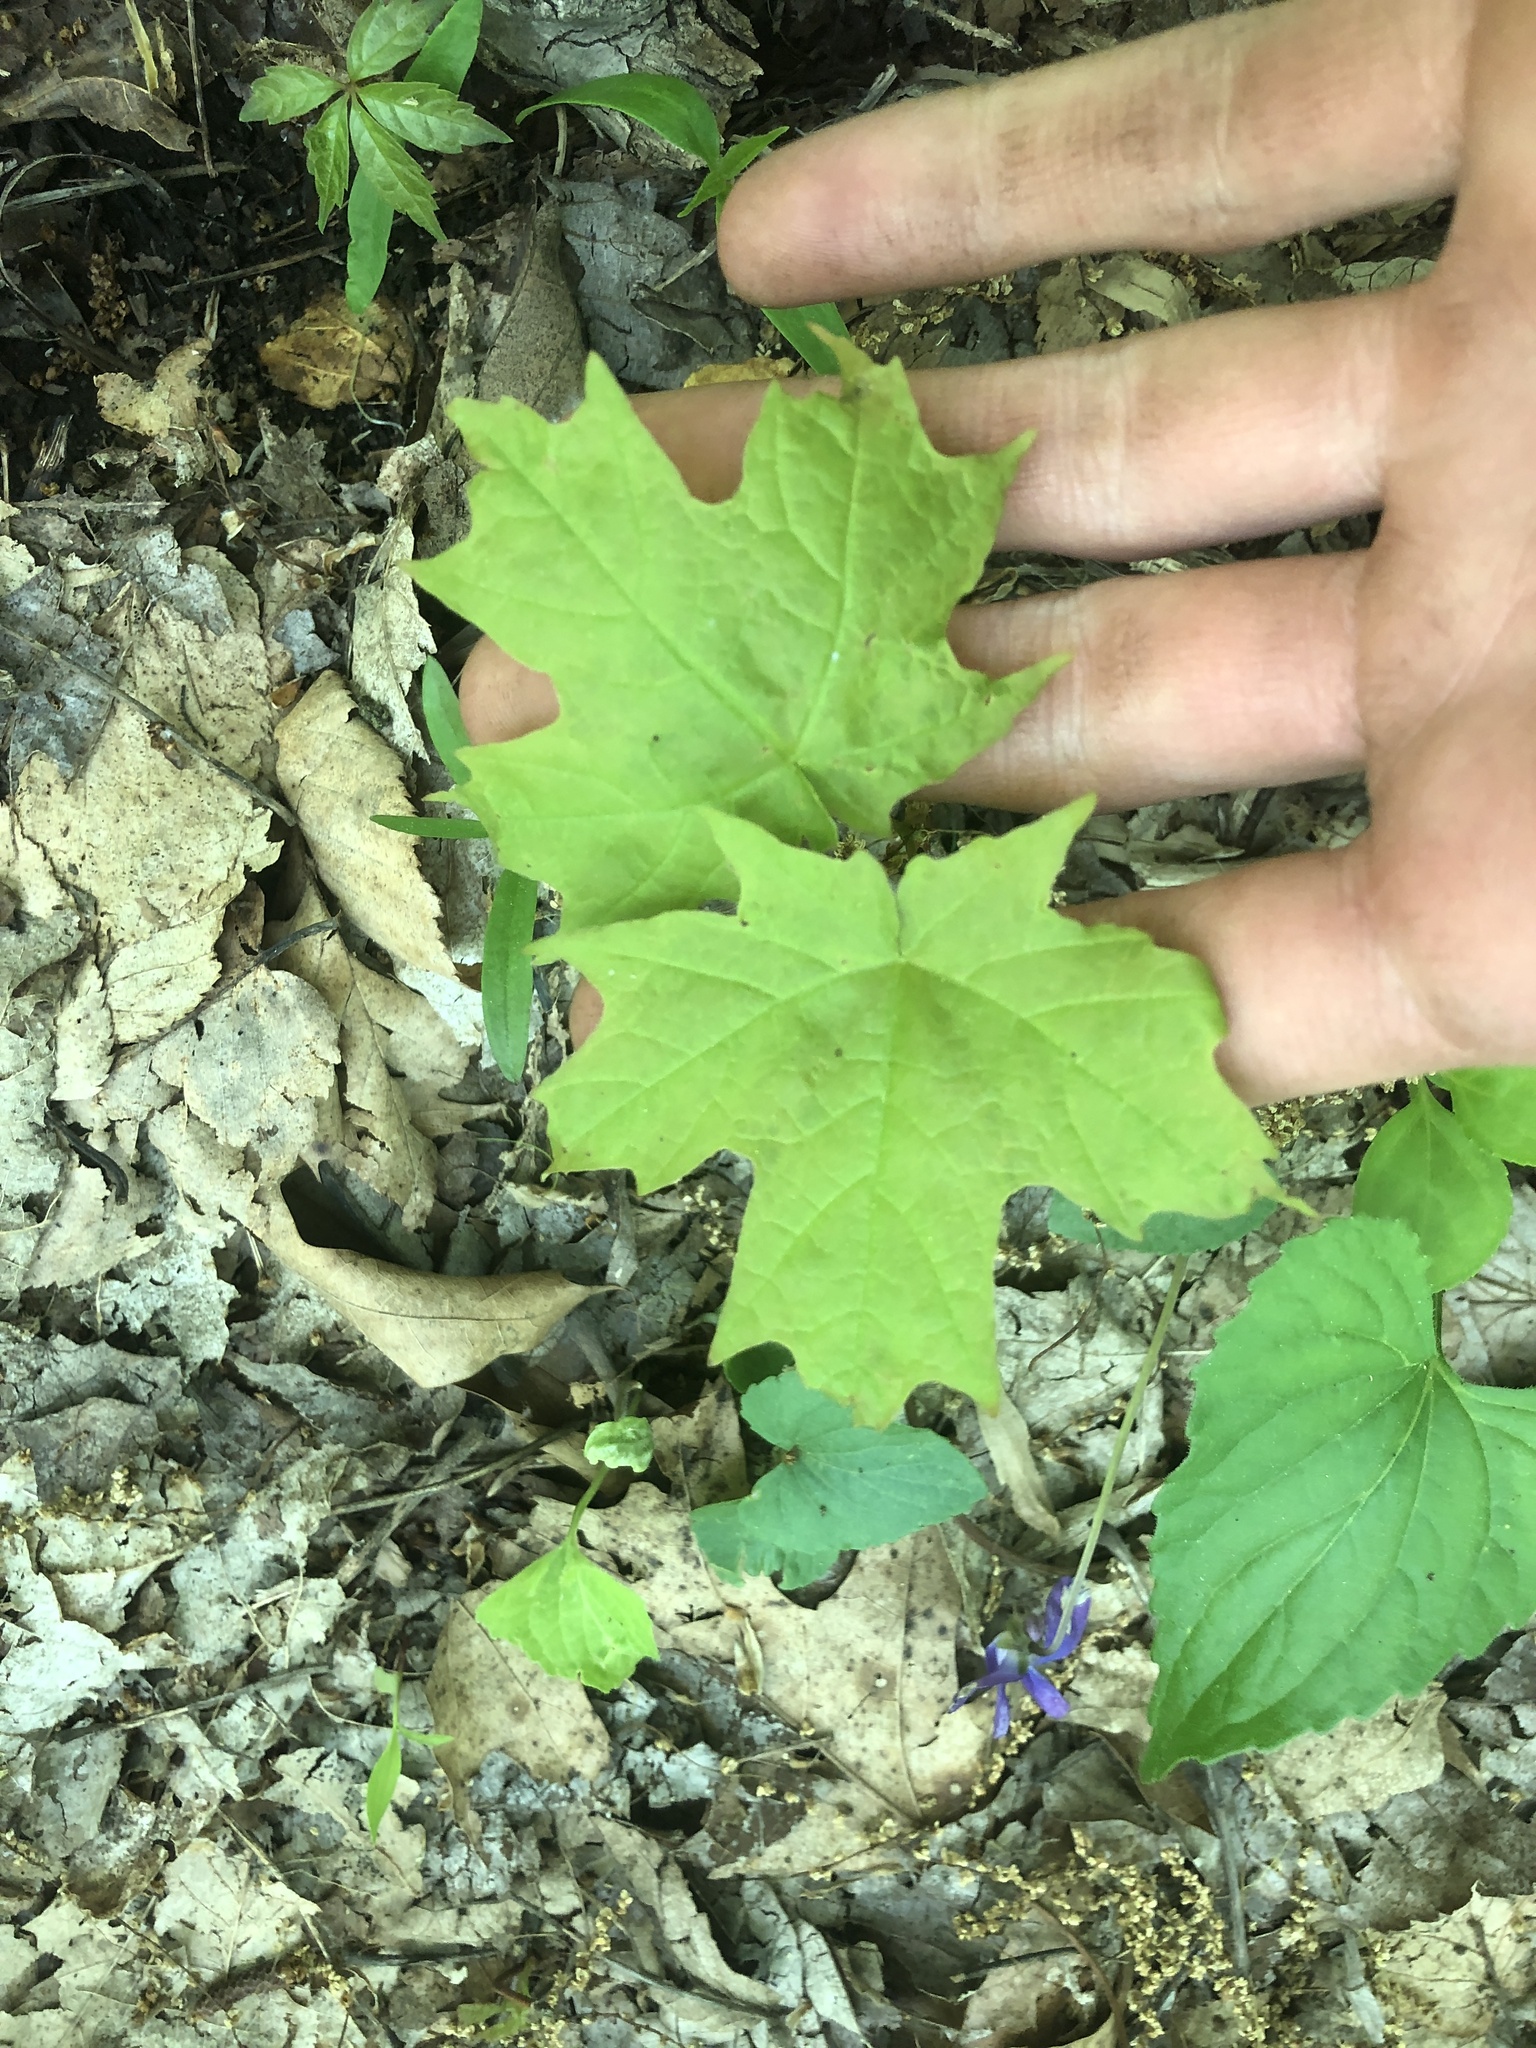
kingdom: Plantae
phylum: Tracheophyta
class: Magnoliopsida
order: Sapindales
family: Sapindaceae
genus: Acer
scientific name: Acer saccharum
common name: Sugar maple
